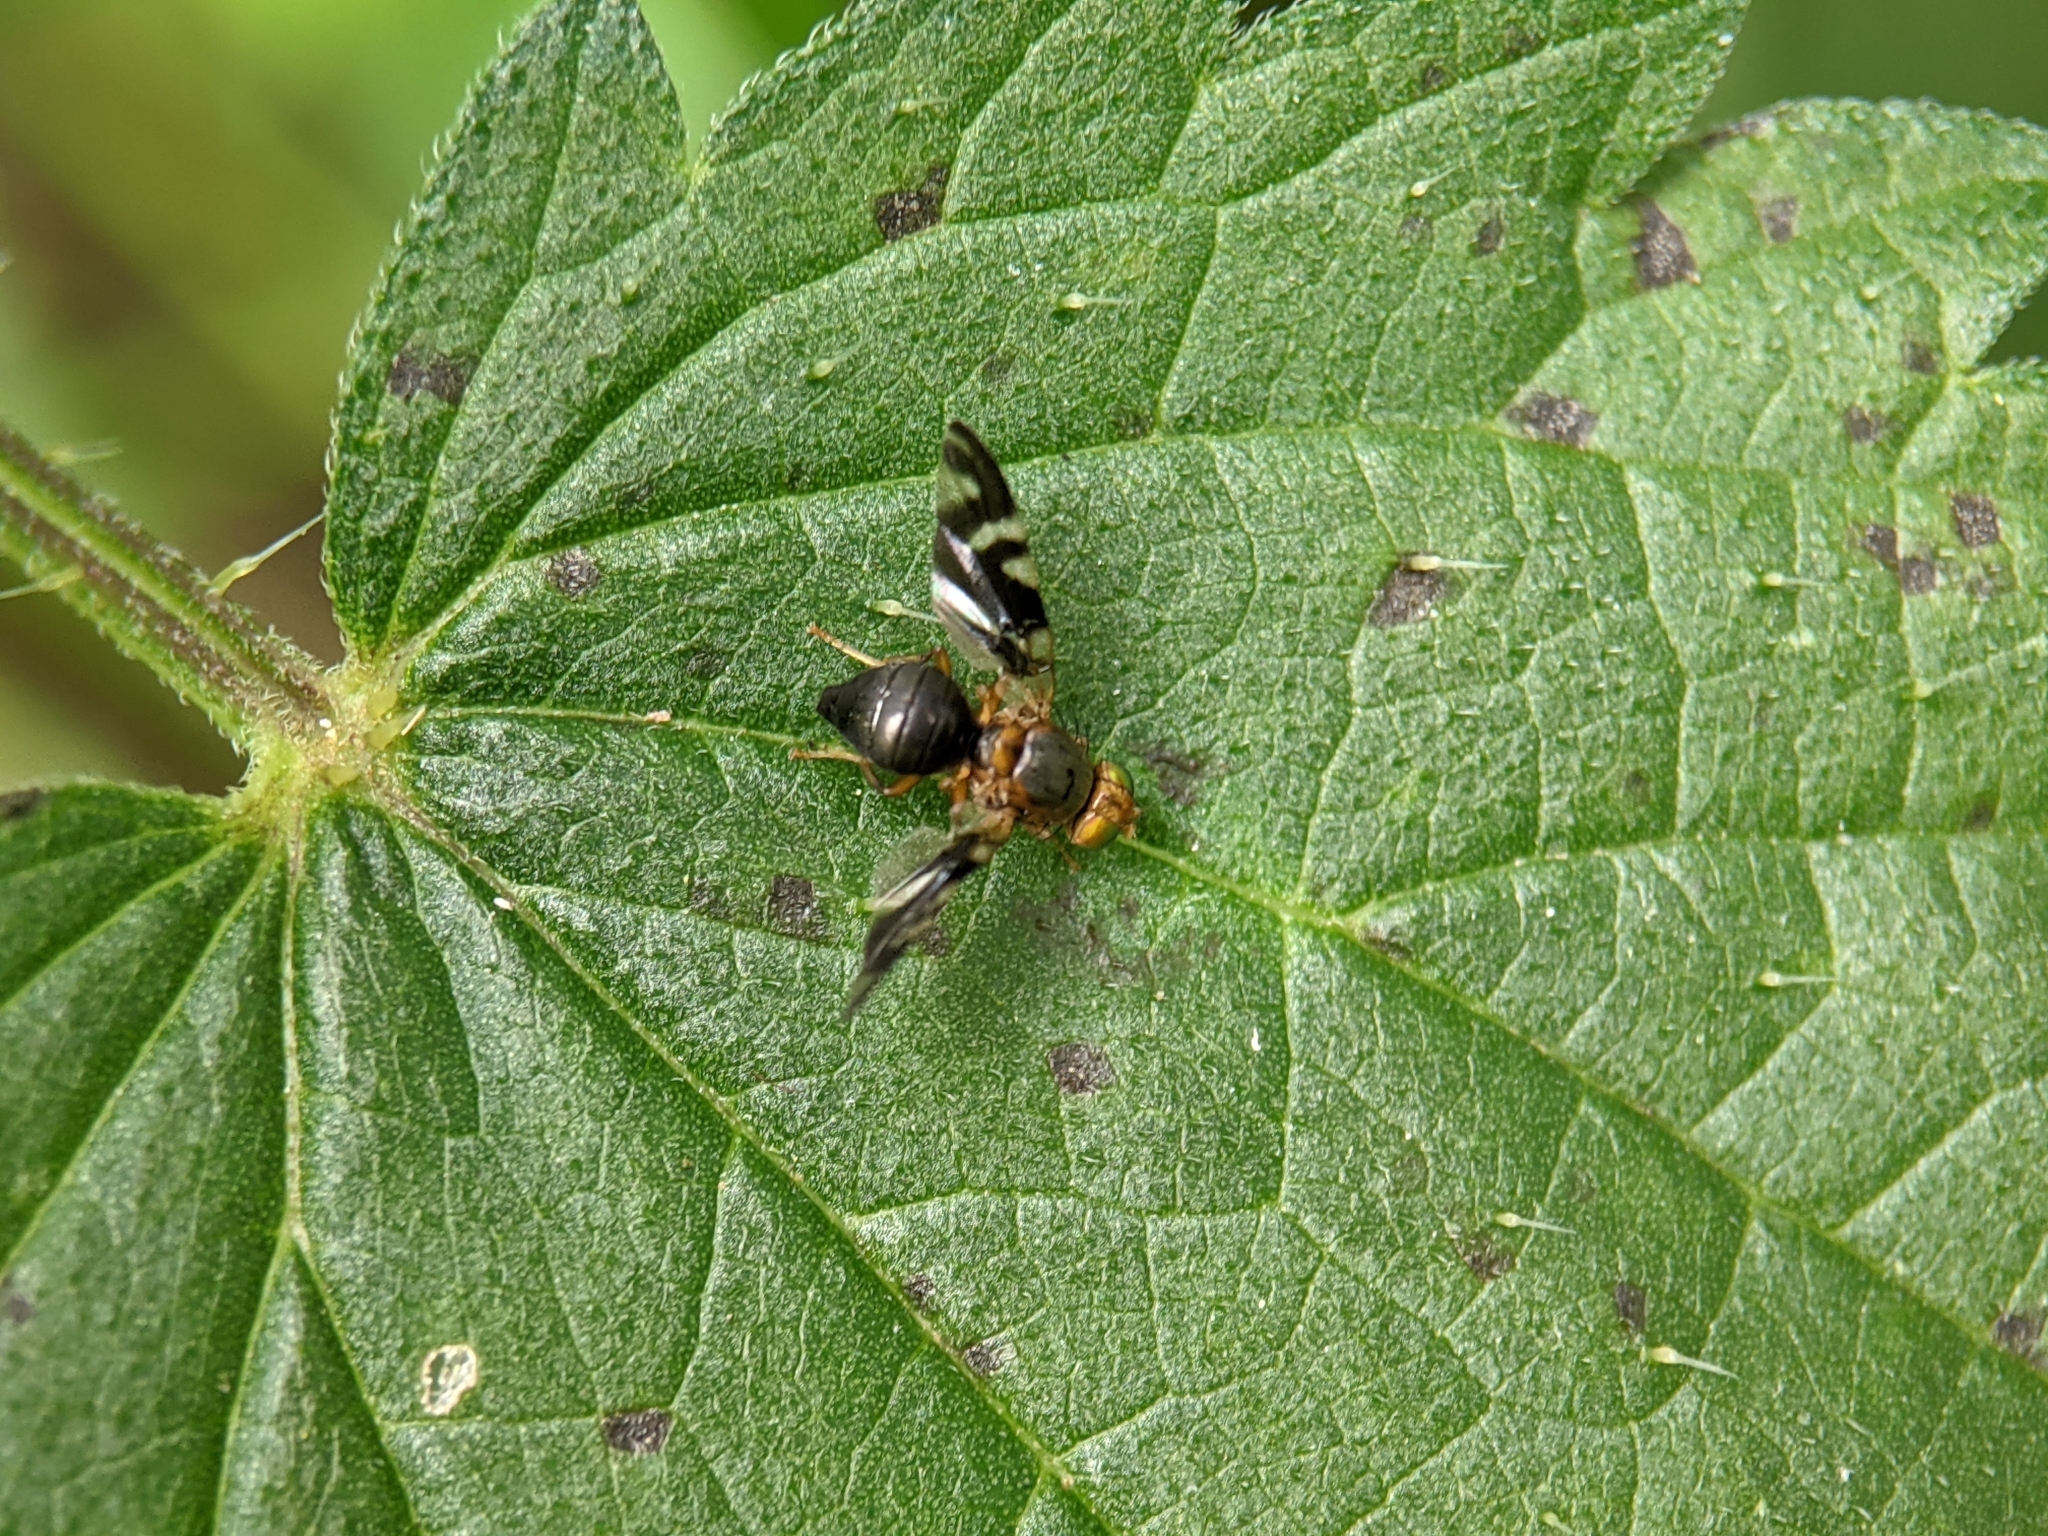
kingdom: Animalia
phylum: Arthropoda
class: Insecta
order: Diptera
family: Tephritidae
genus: Philophylla
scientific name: Philophylla caesio
